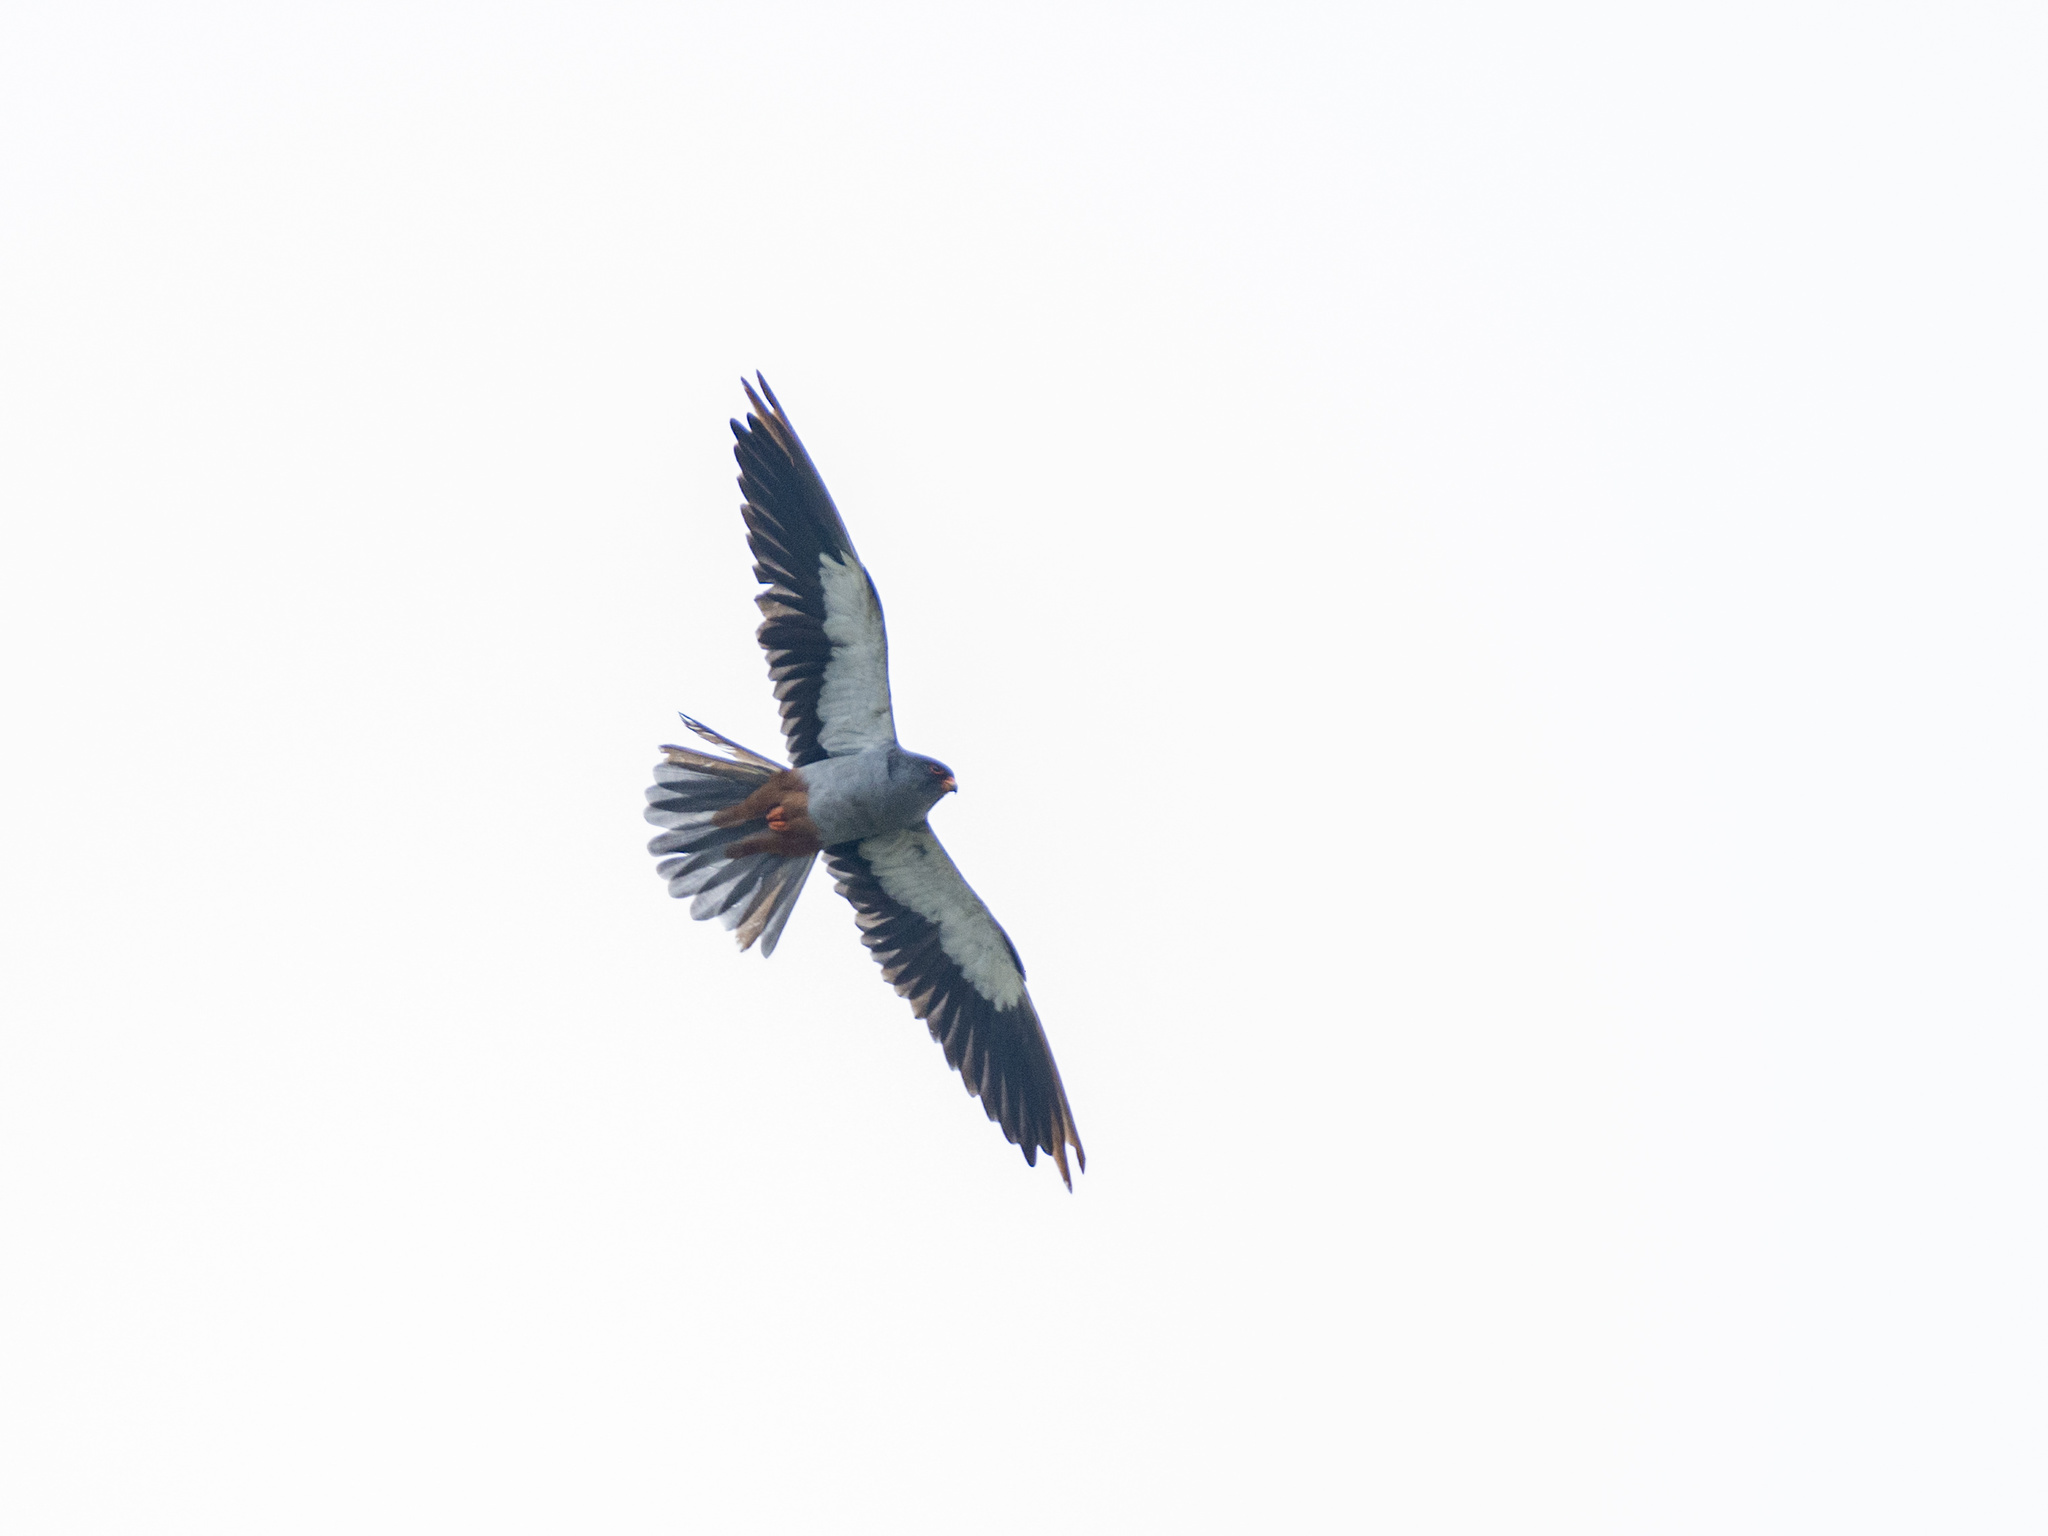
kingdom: Animalia
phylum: Chordata
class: Aves
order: Falconiformes
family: Falconidae
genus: Falco
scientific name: Falco amurensis
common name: Amur falcon
